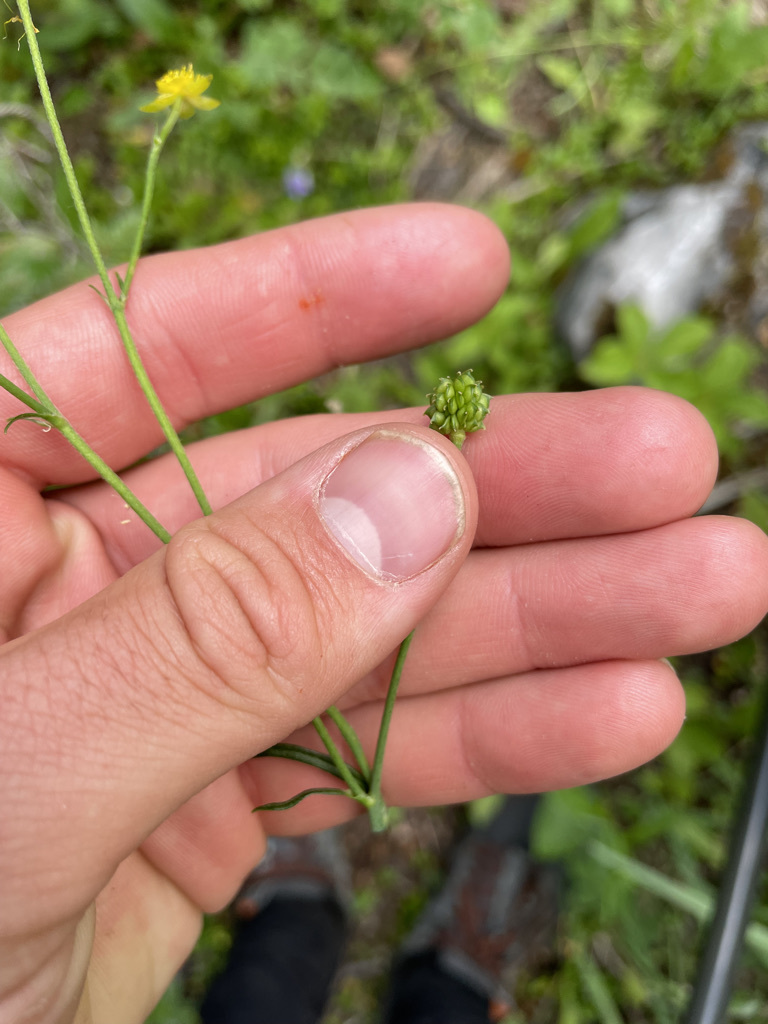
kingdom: Plantae
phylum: Tracheophyta
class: Magnoliopsida
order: Ranunculales
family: Ranunculaceae
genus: Ranunculus
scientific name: Ranunculus acris
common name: Meadow buttercup
